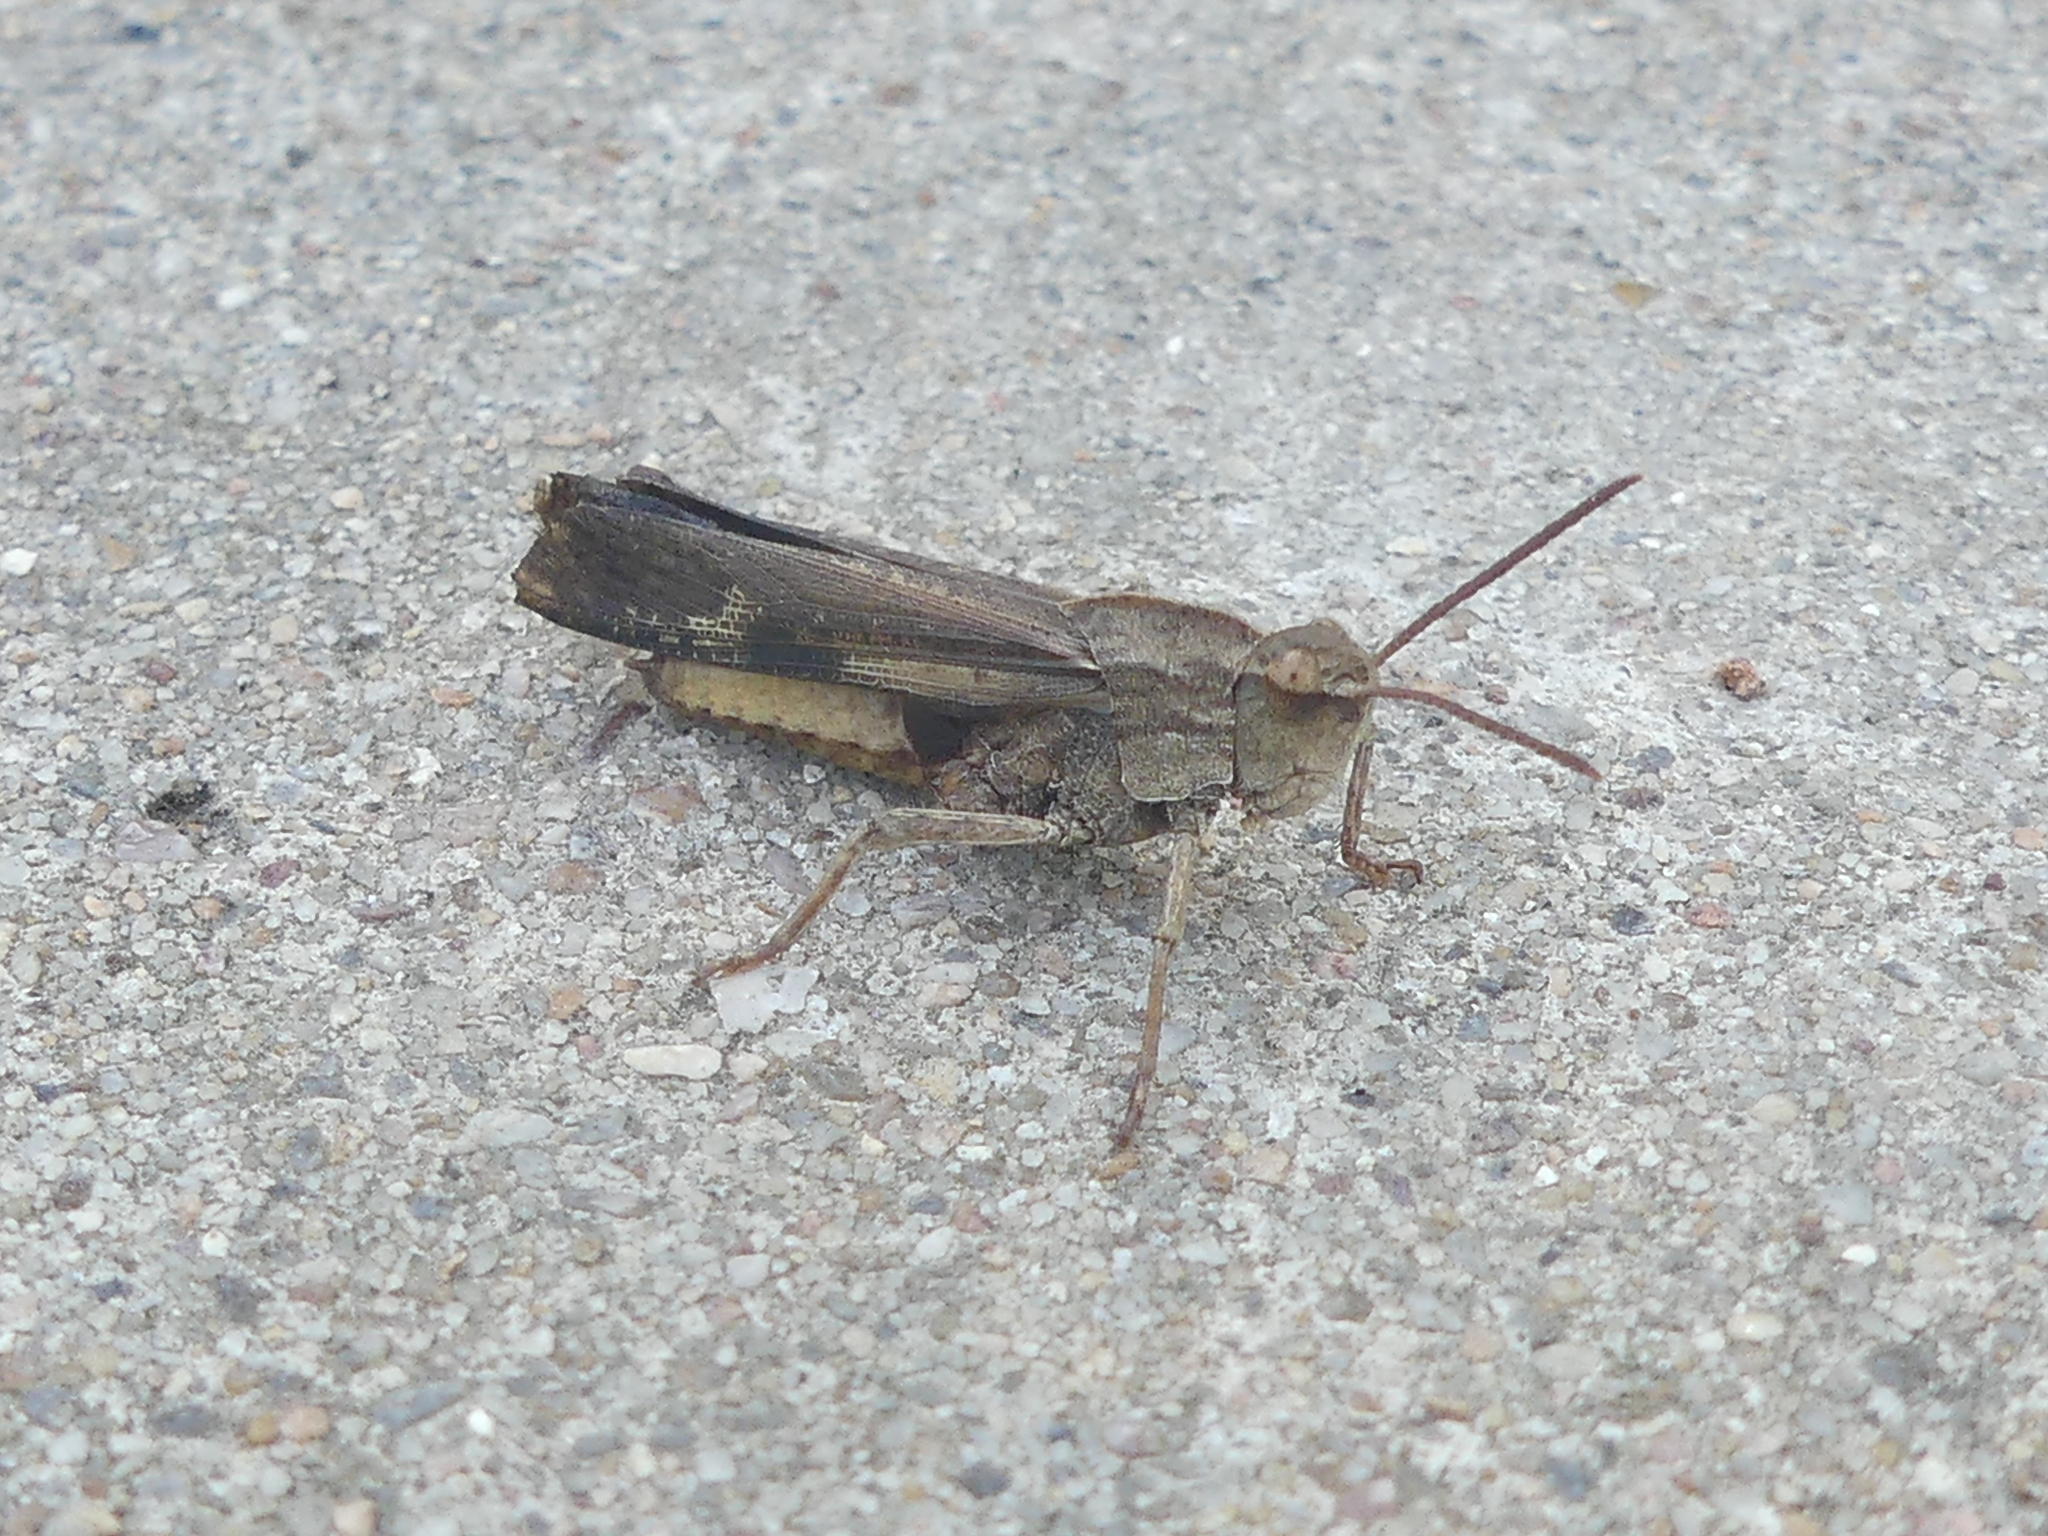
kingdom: Animalia
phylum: Arthropoda
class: Insecta
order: Orthoptera
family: Acrididae
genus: Chortophaga
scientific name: Chortophaga viridifasciata
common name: Green-striped grasshopper
